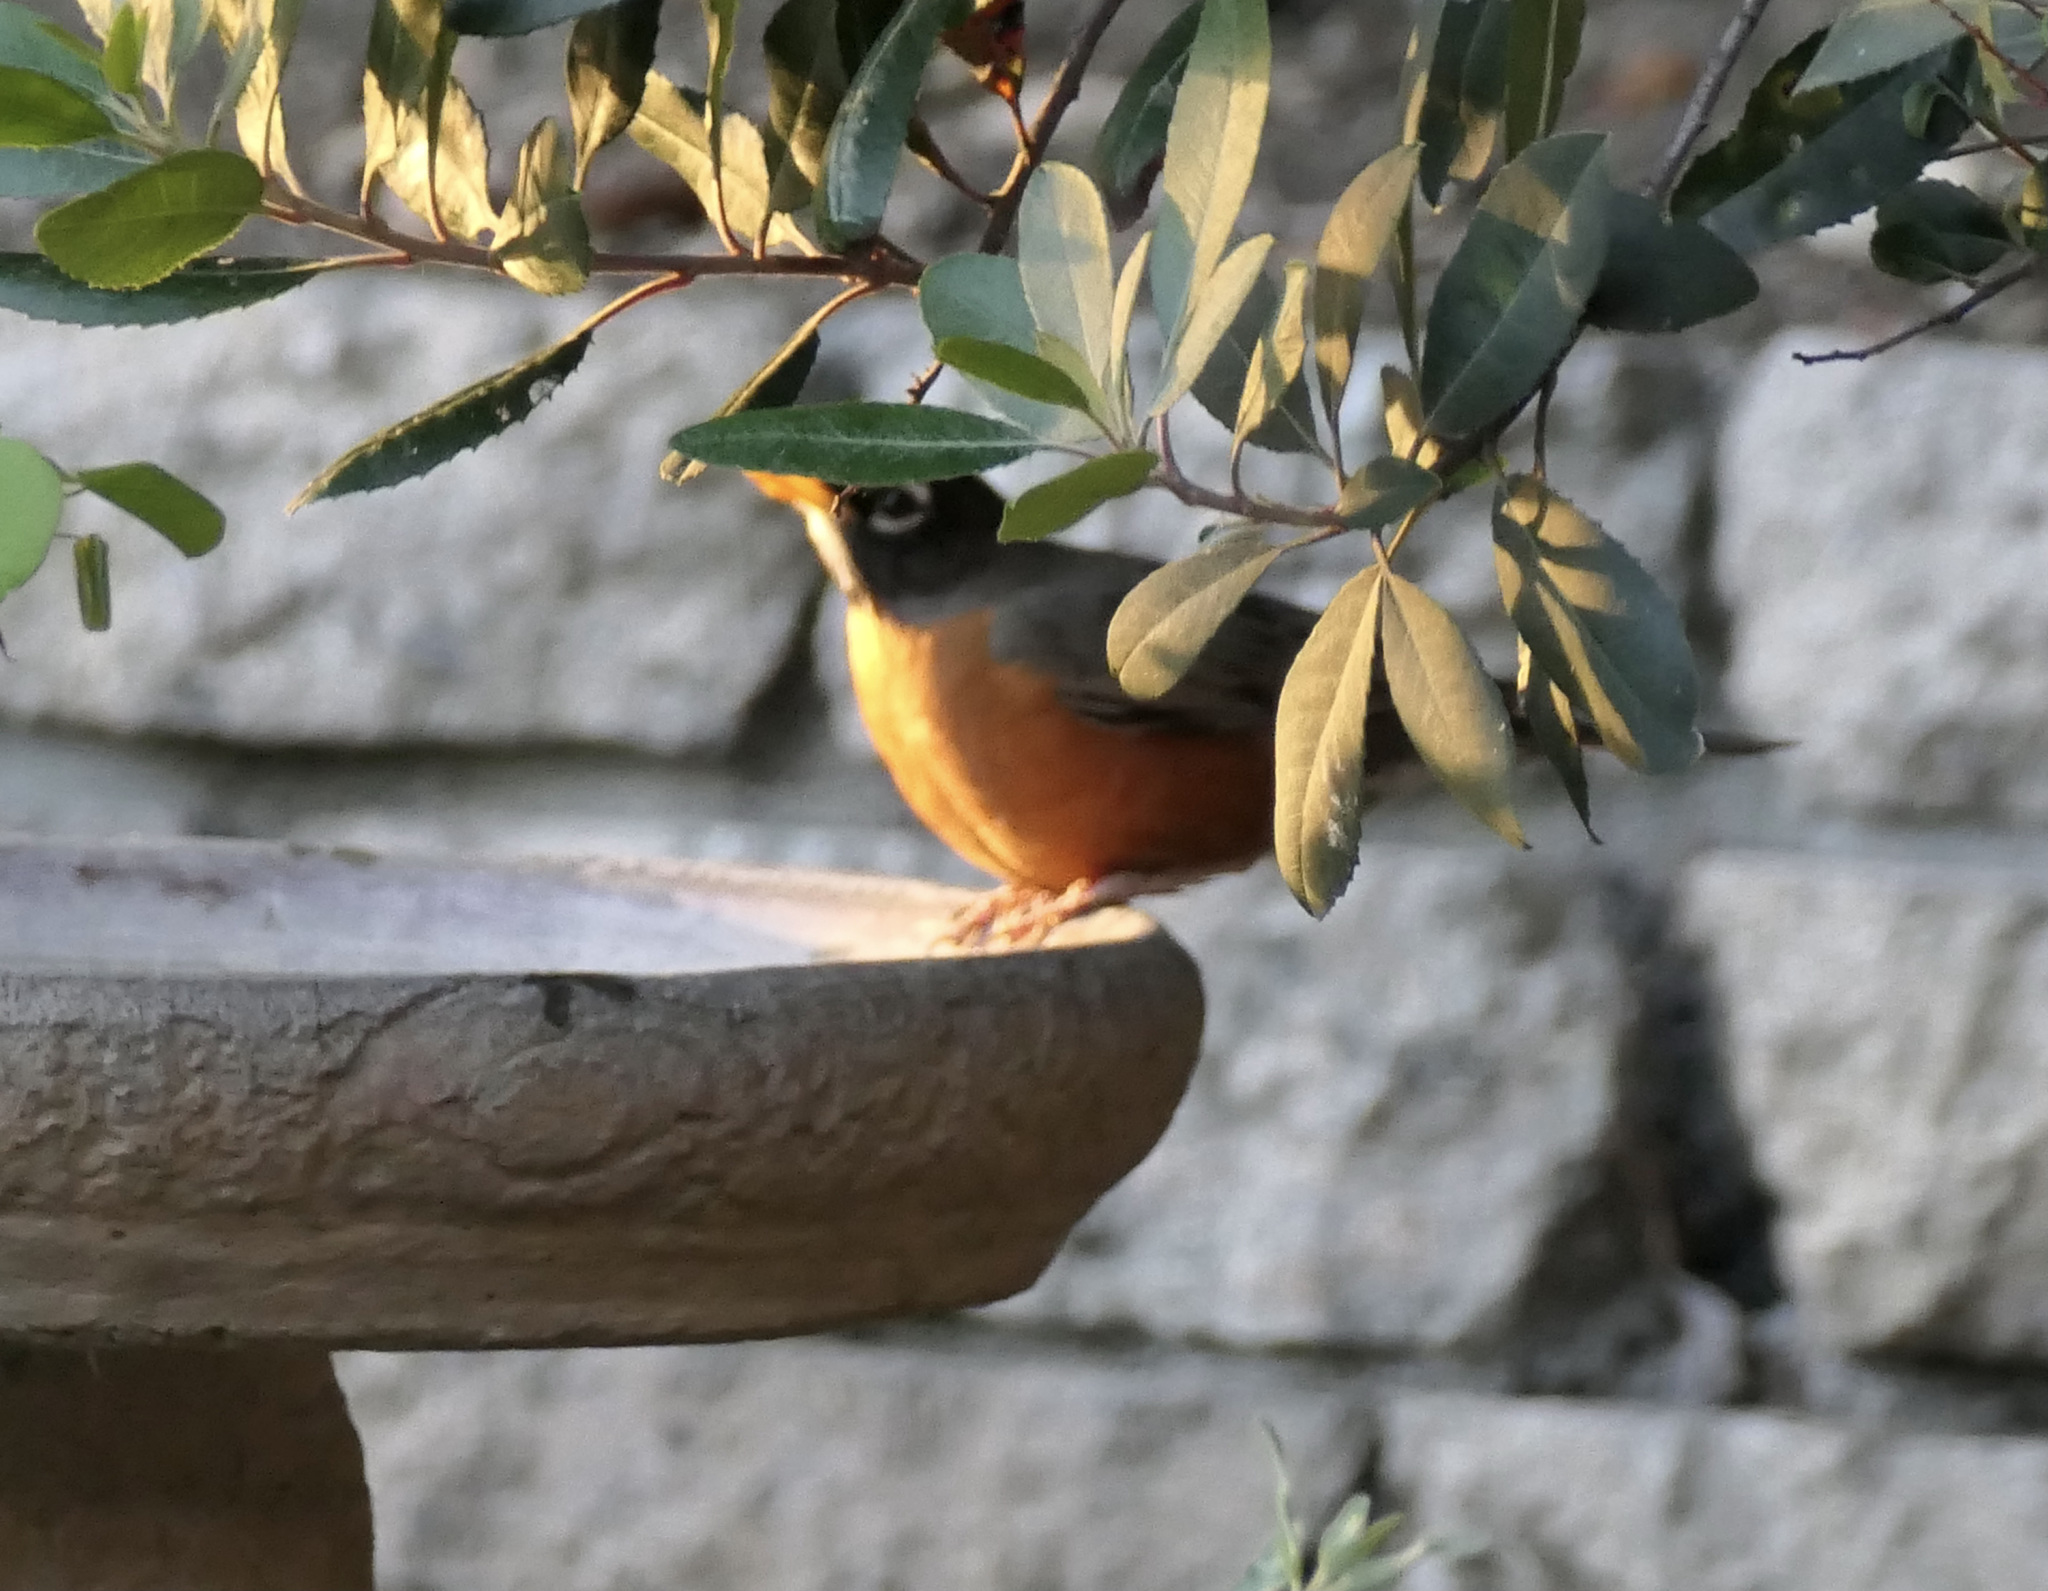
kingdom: Animalia
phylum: Chordata
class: Aves
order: Passeriformes
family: Turdidae
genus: Turdus
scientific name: Turdus migratorius
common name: American robin
